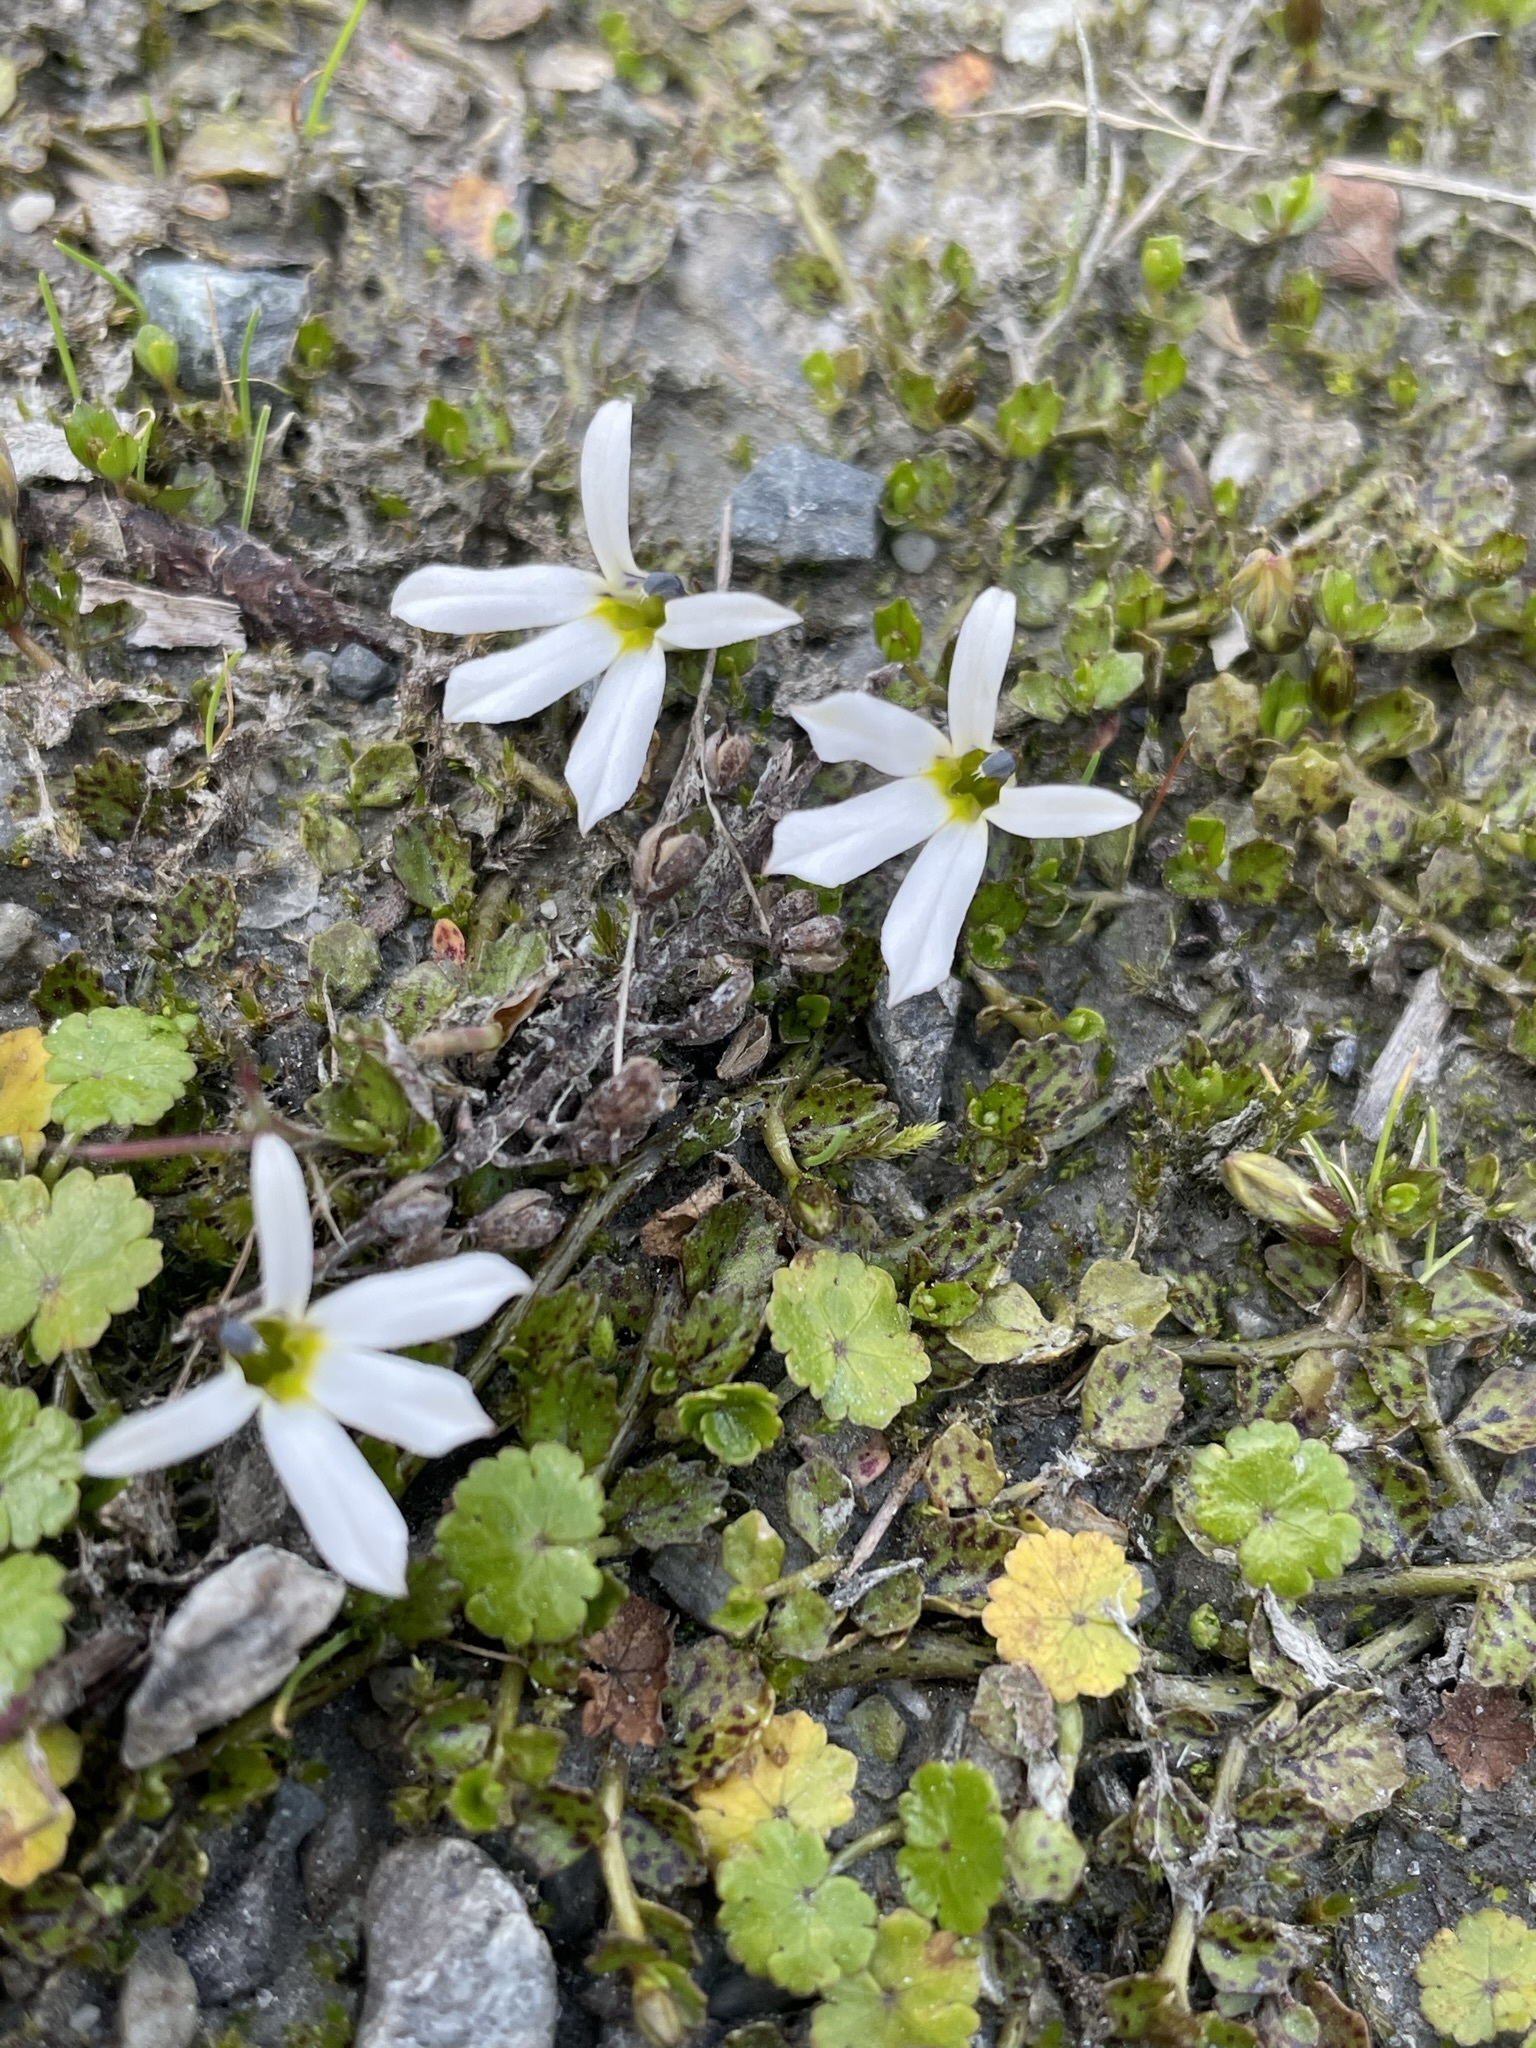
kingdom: Plantae
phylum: Tracheophyta
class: Magnoliopsida
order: Asterales
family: Campanulaceae
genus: Lobelia
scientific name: Lobelia angulata
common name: Lawn lobelia
